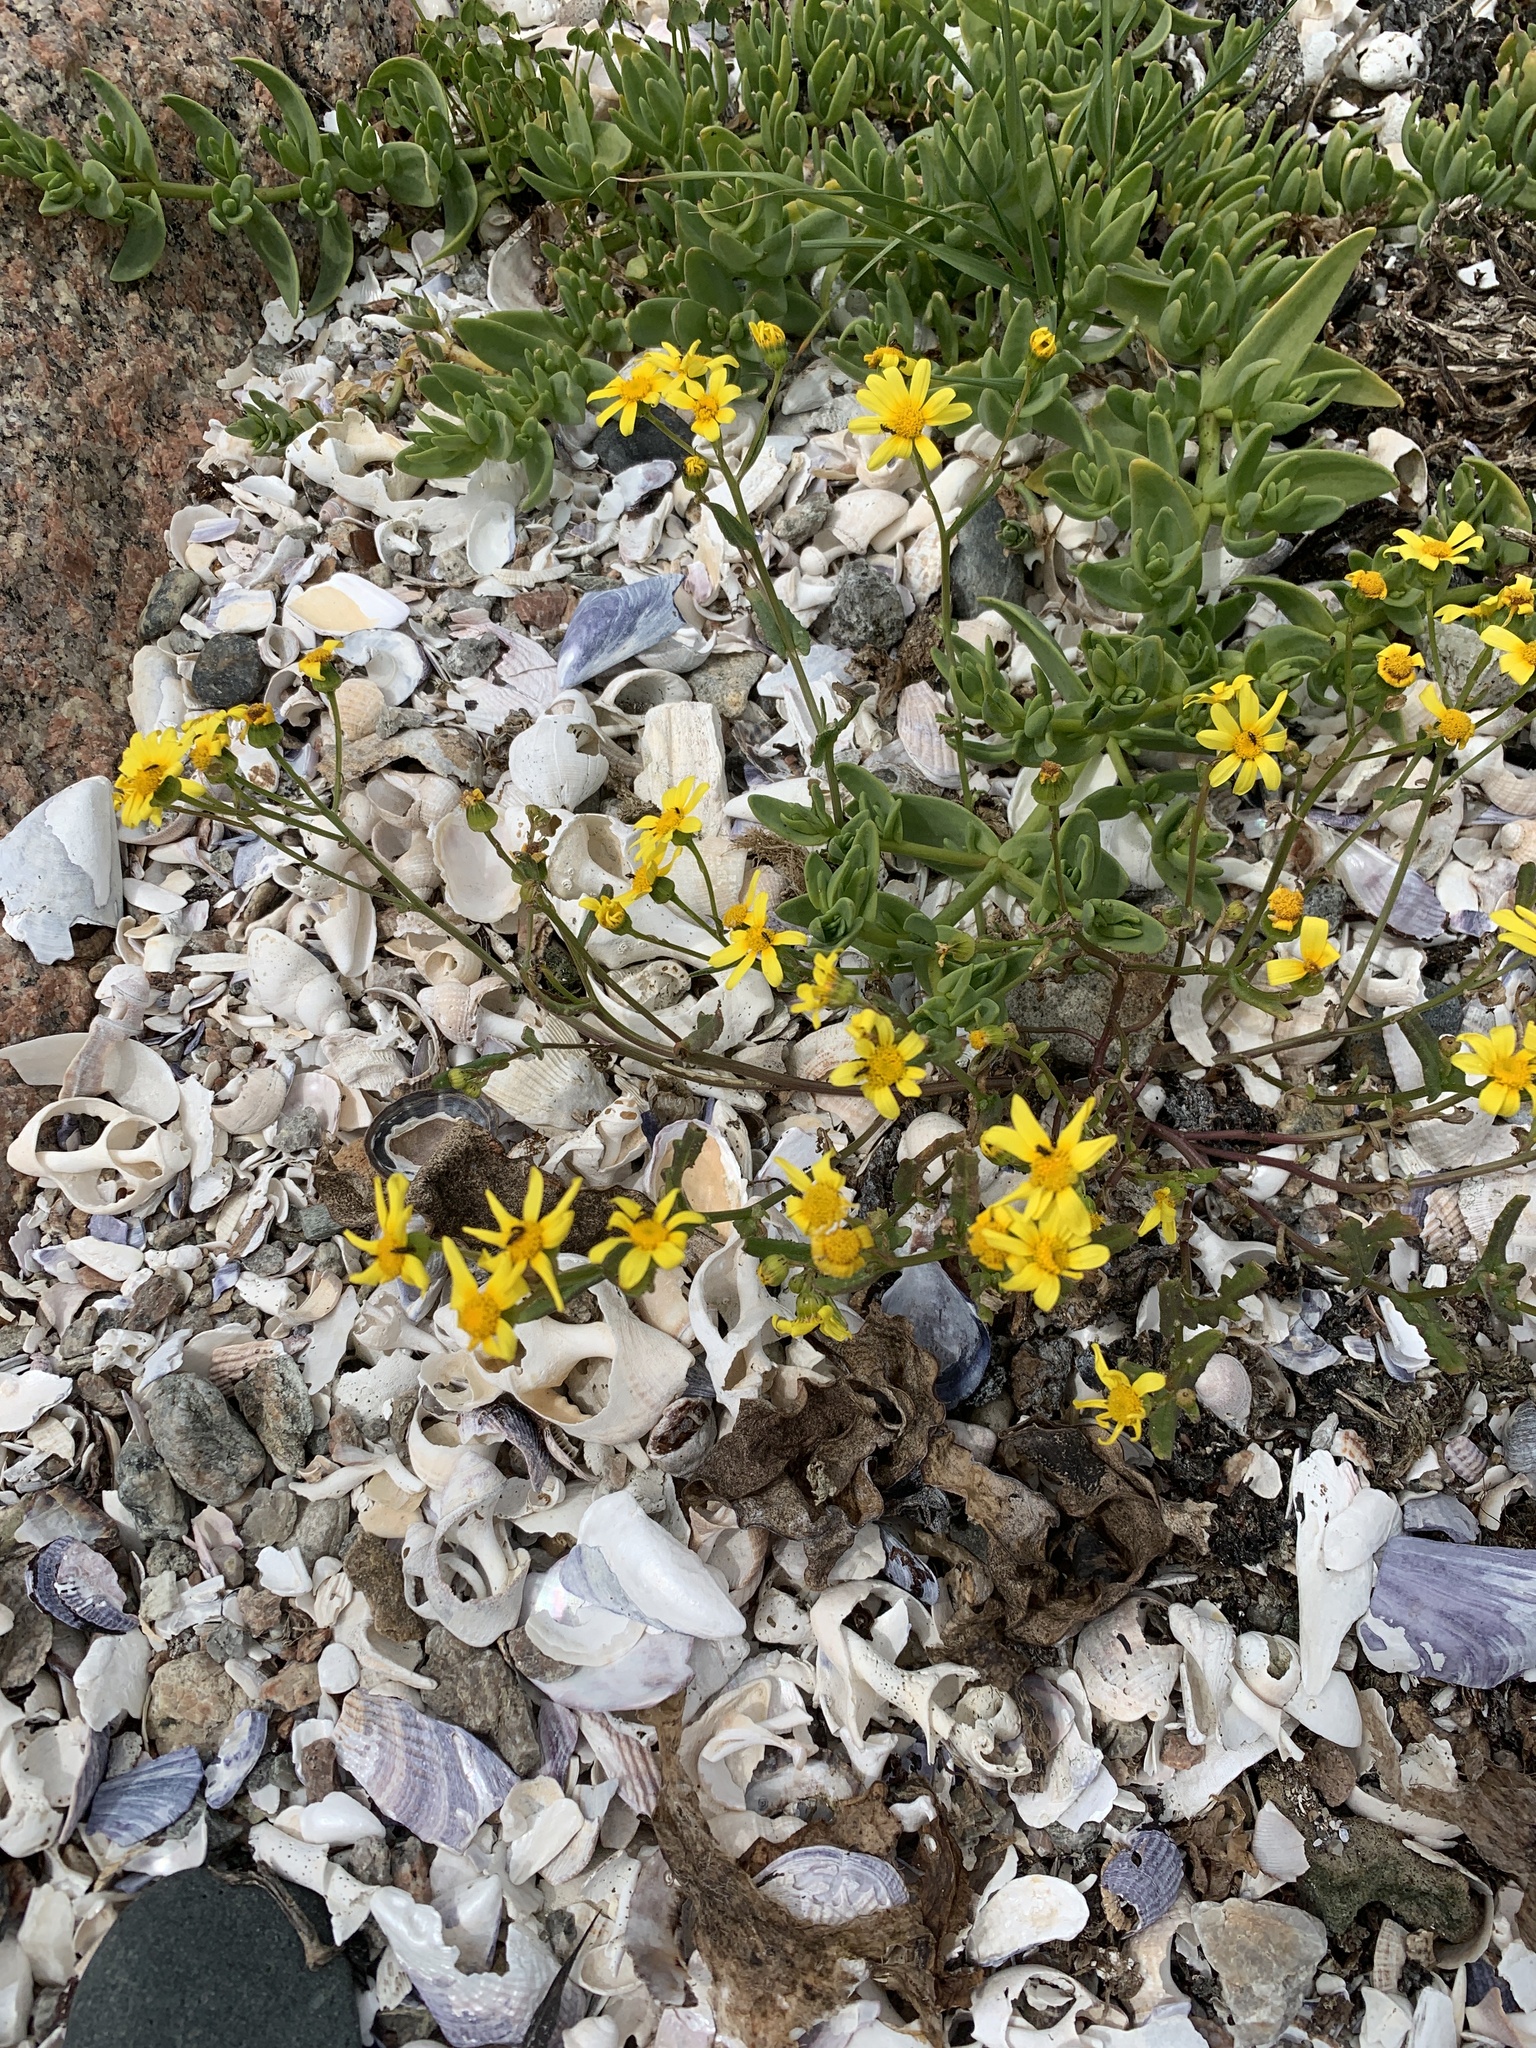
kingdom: Plantae
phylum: Tracheophyta
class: Magnoliopsida
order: Asterales
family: Asteraceae
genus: Senecio
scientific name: Senecio maritimus
